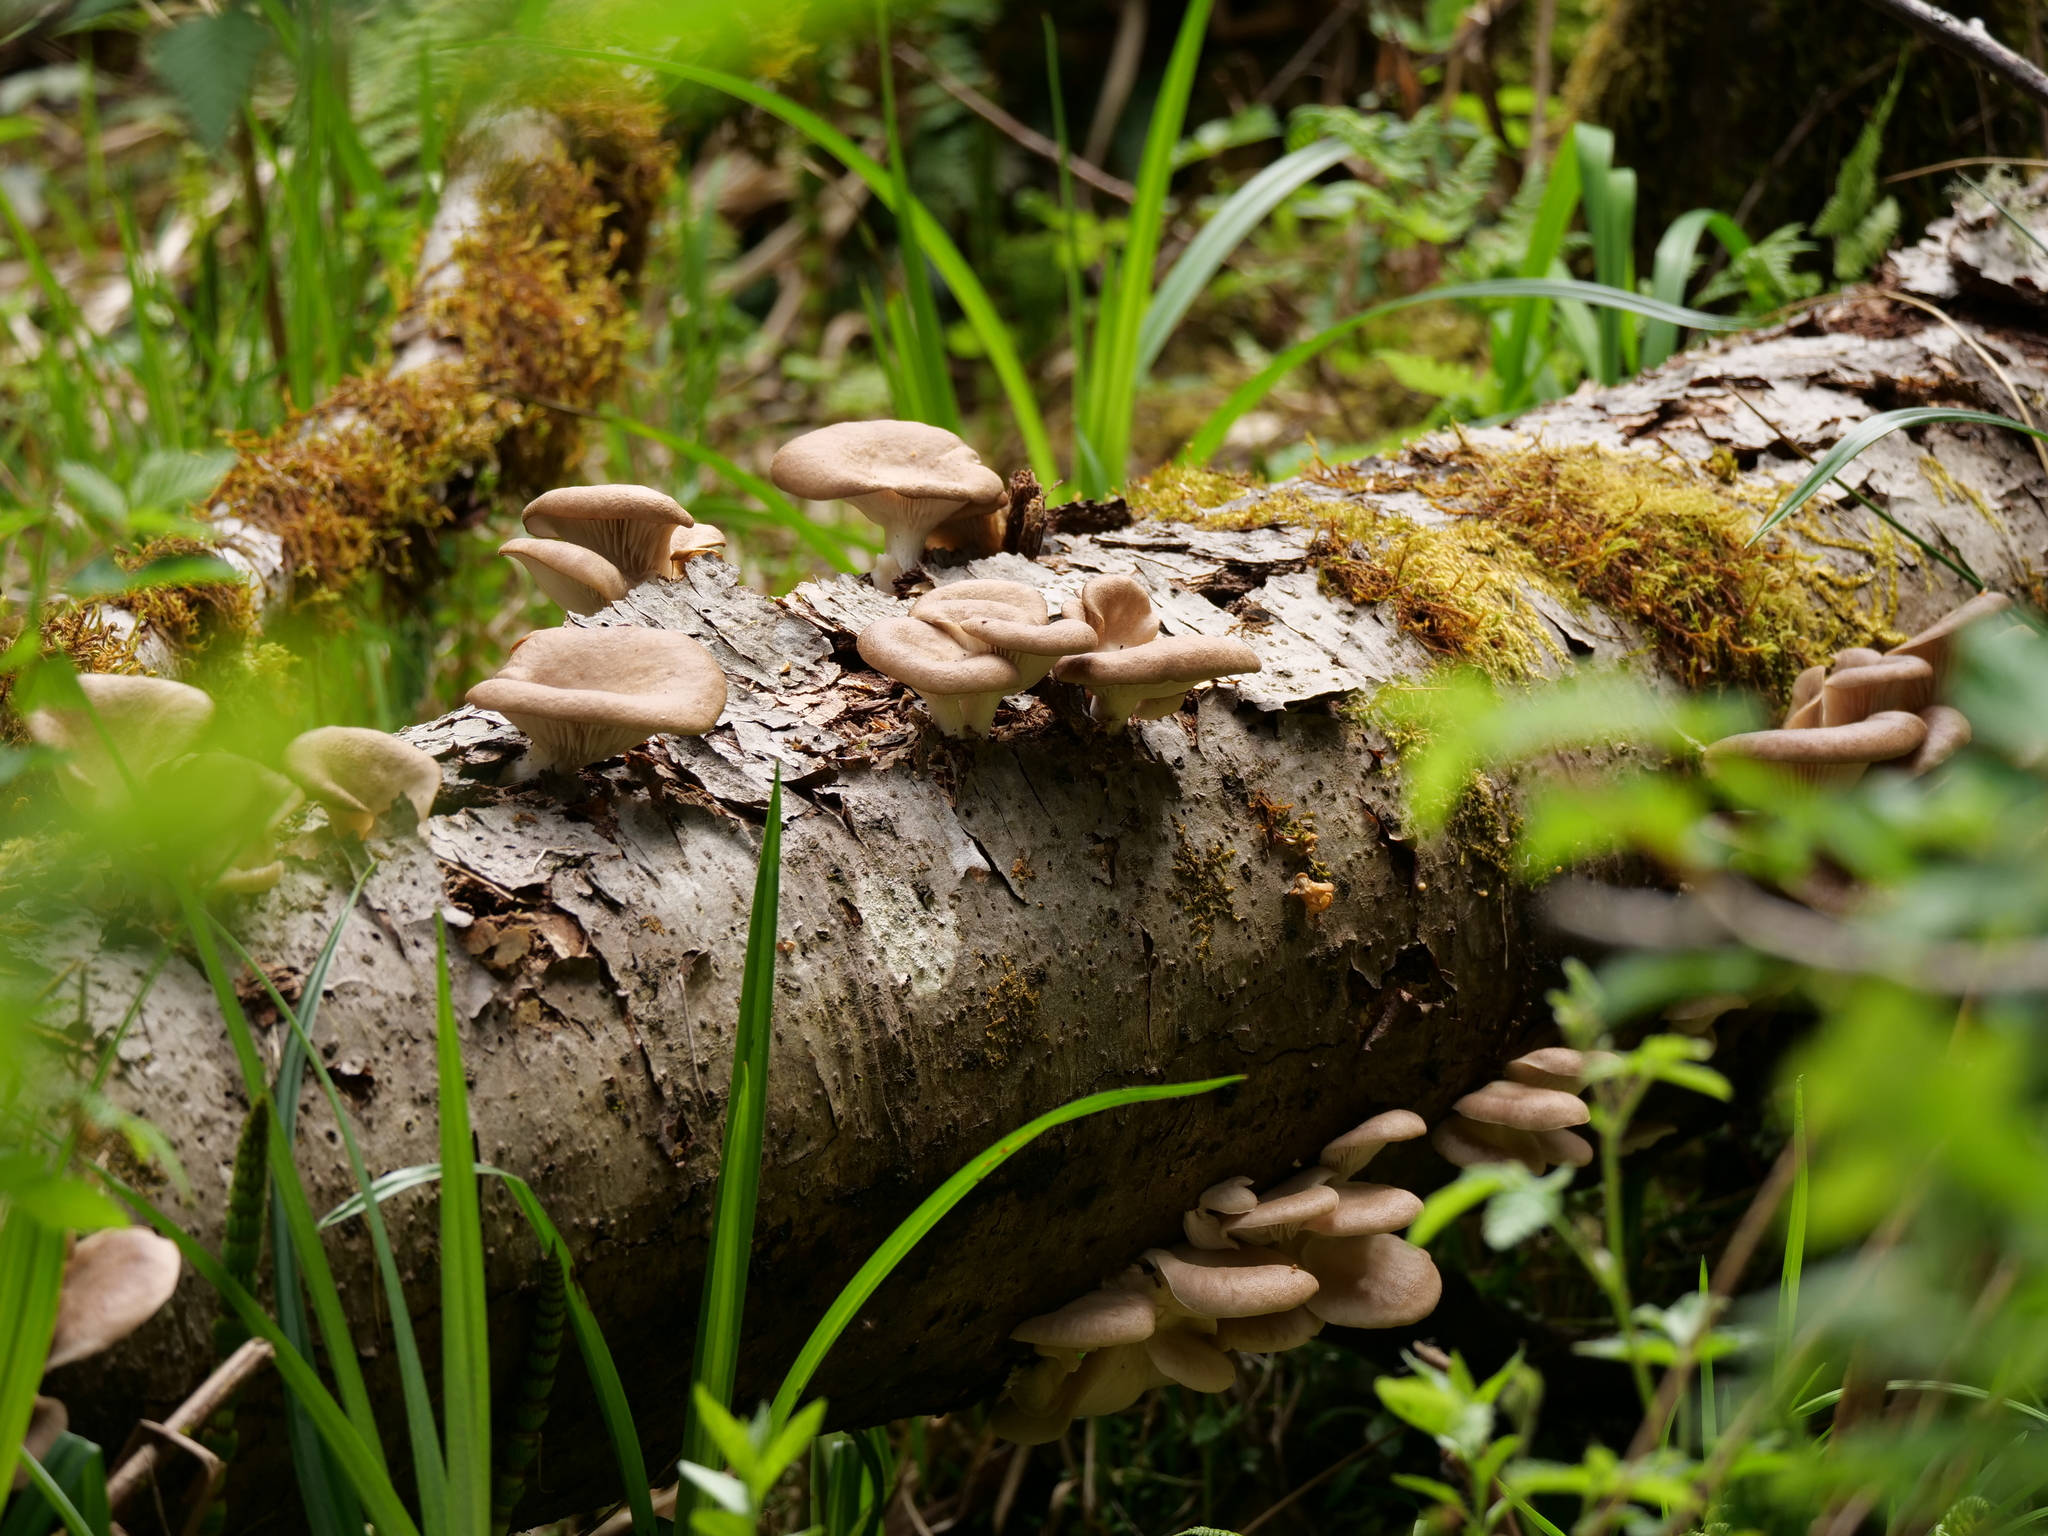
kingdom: Fungi
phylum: Basidiomycota
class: Agaricomycetes
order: Agaricales
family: Pleurotaceae
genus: Pleurotus
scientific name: Pleurotus ostreatus
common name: Oyster mushroom
